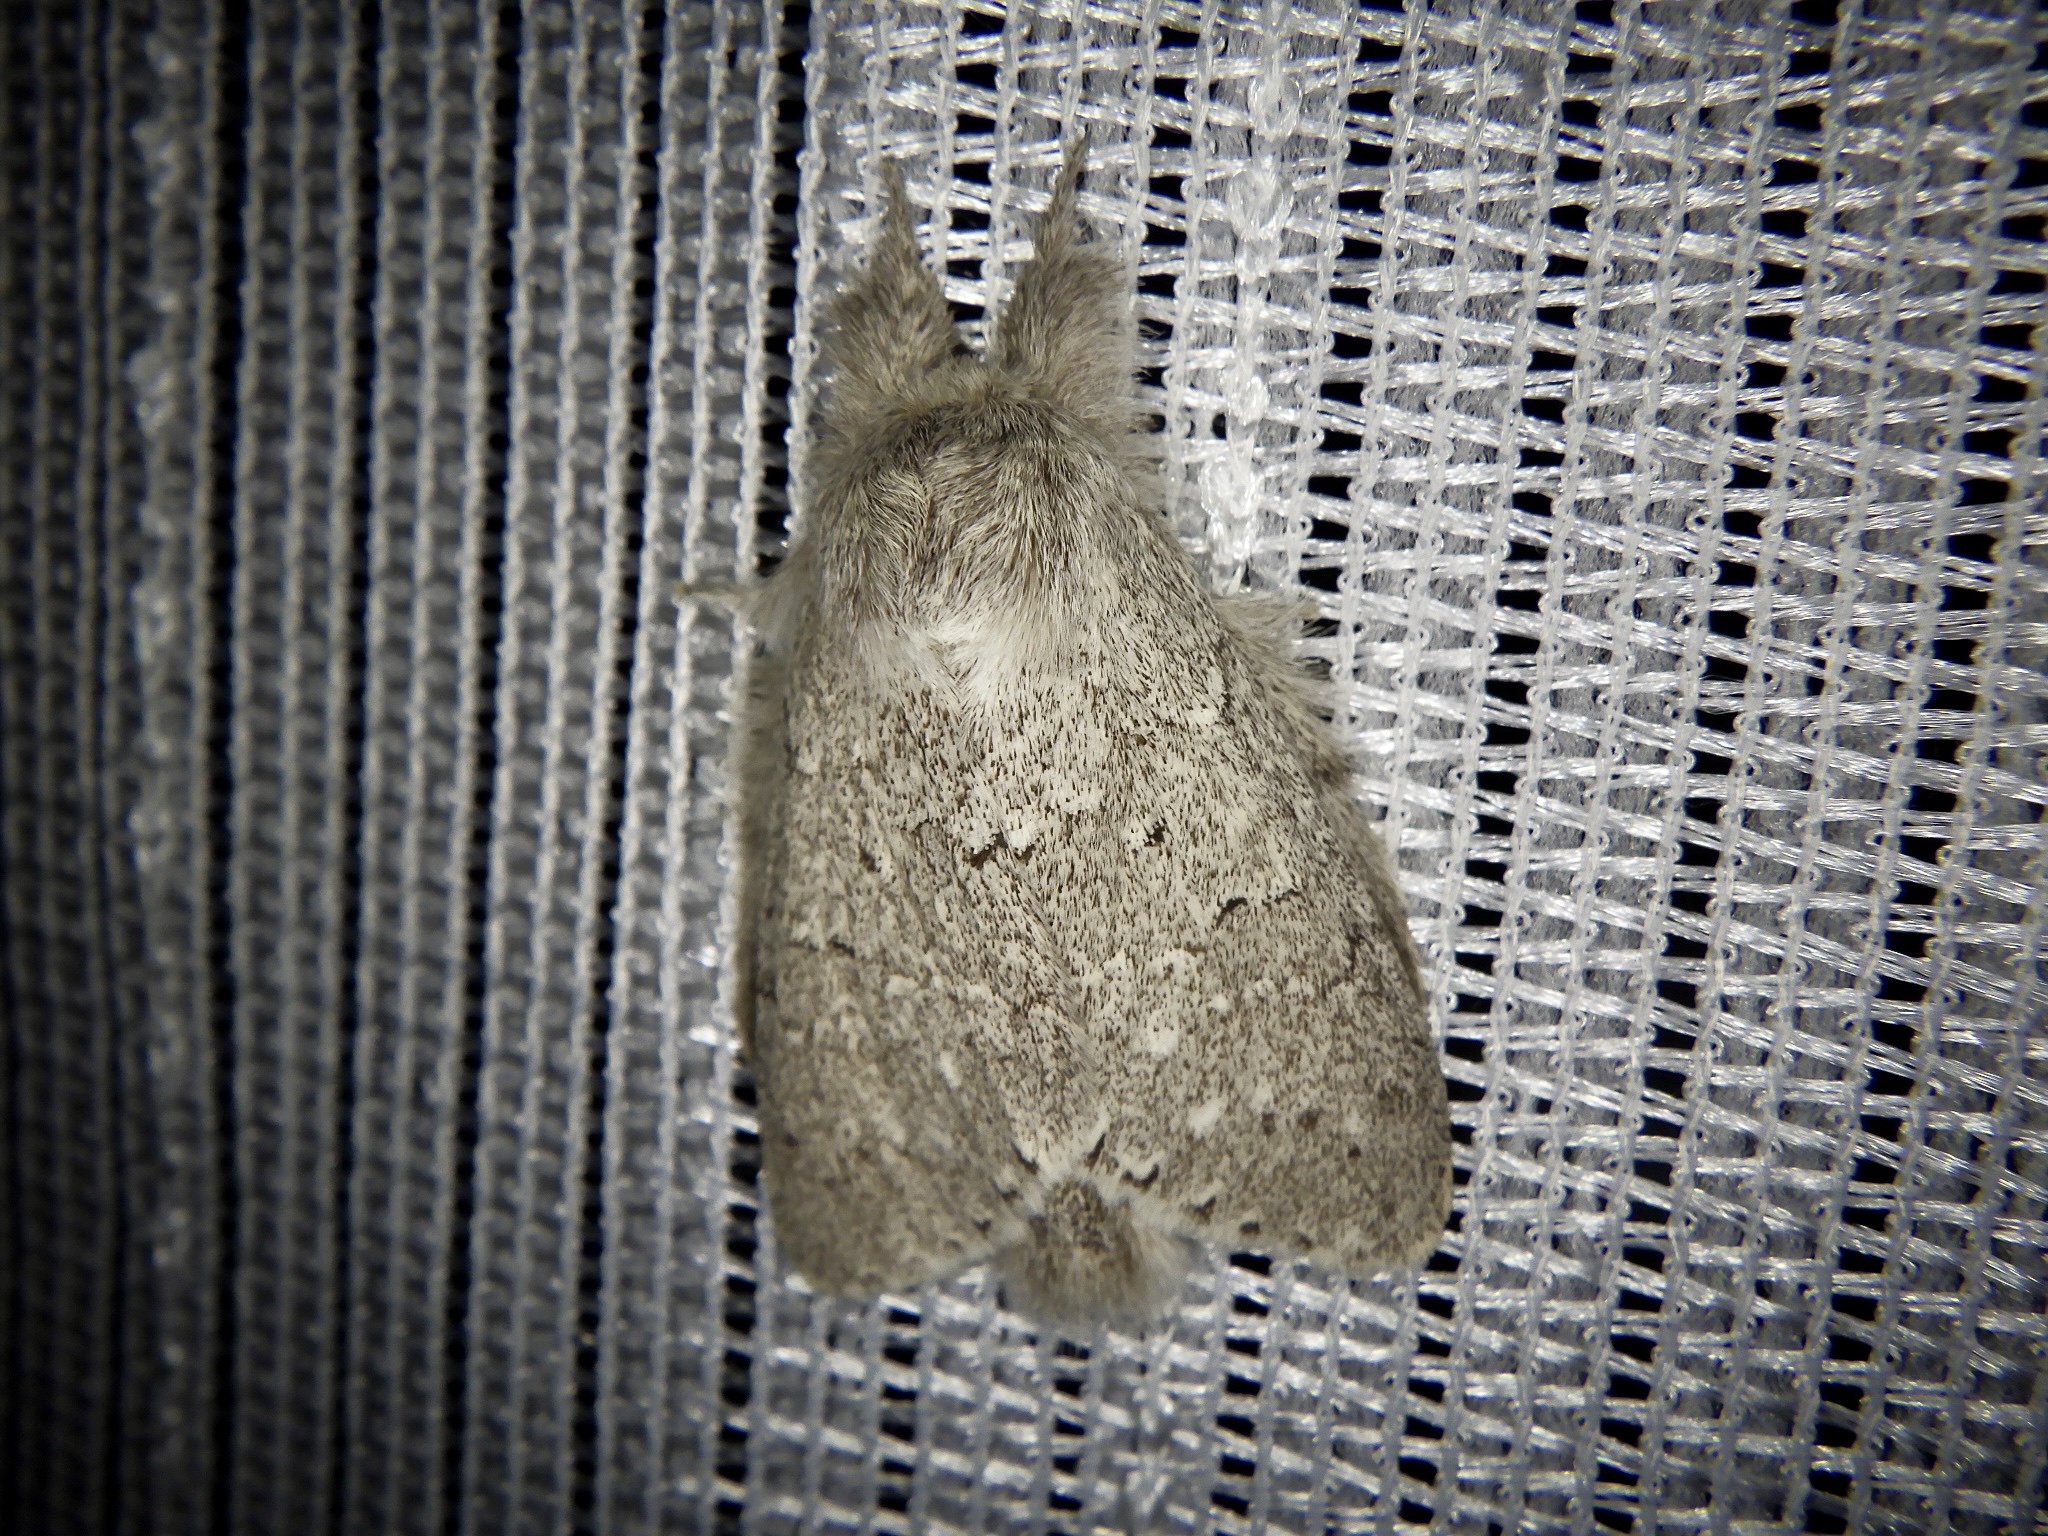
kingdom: Animalia
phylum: Arthropoda
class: Insecta
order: Lepidoptera
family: Notodontidae
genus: Cnethodonta
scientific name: Cnethodonta grisescens
